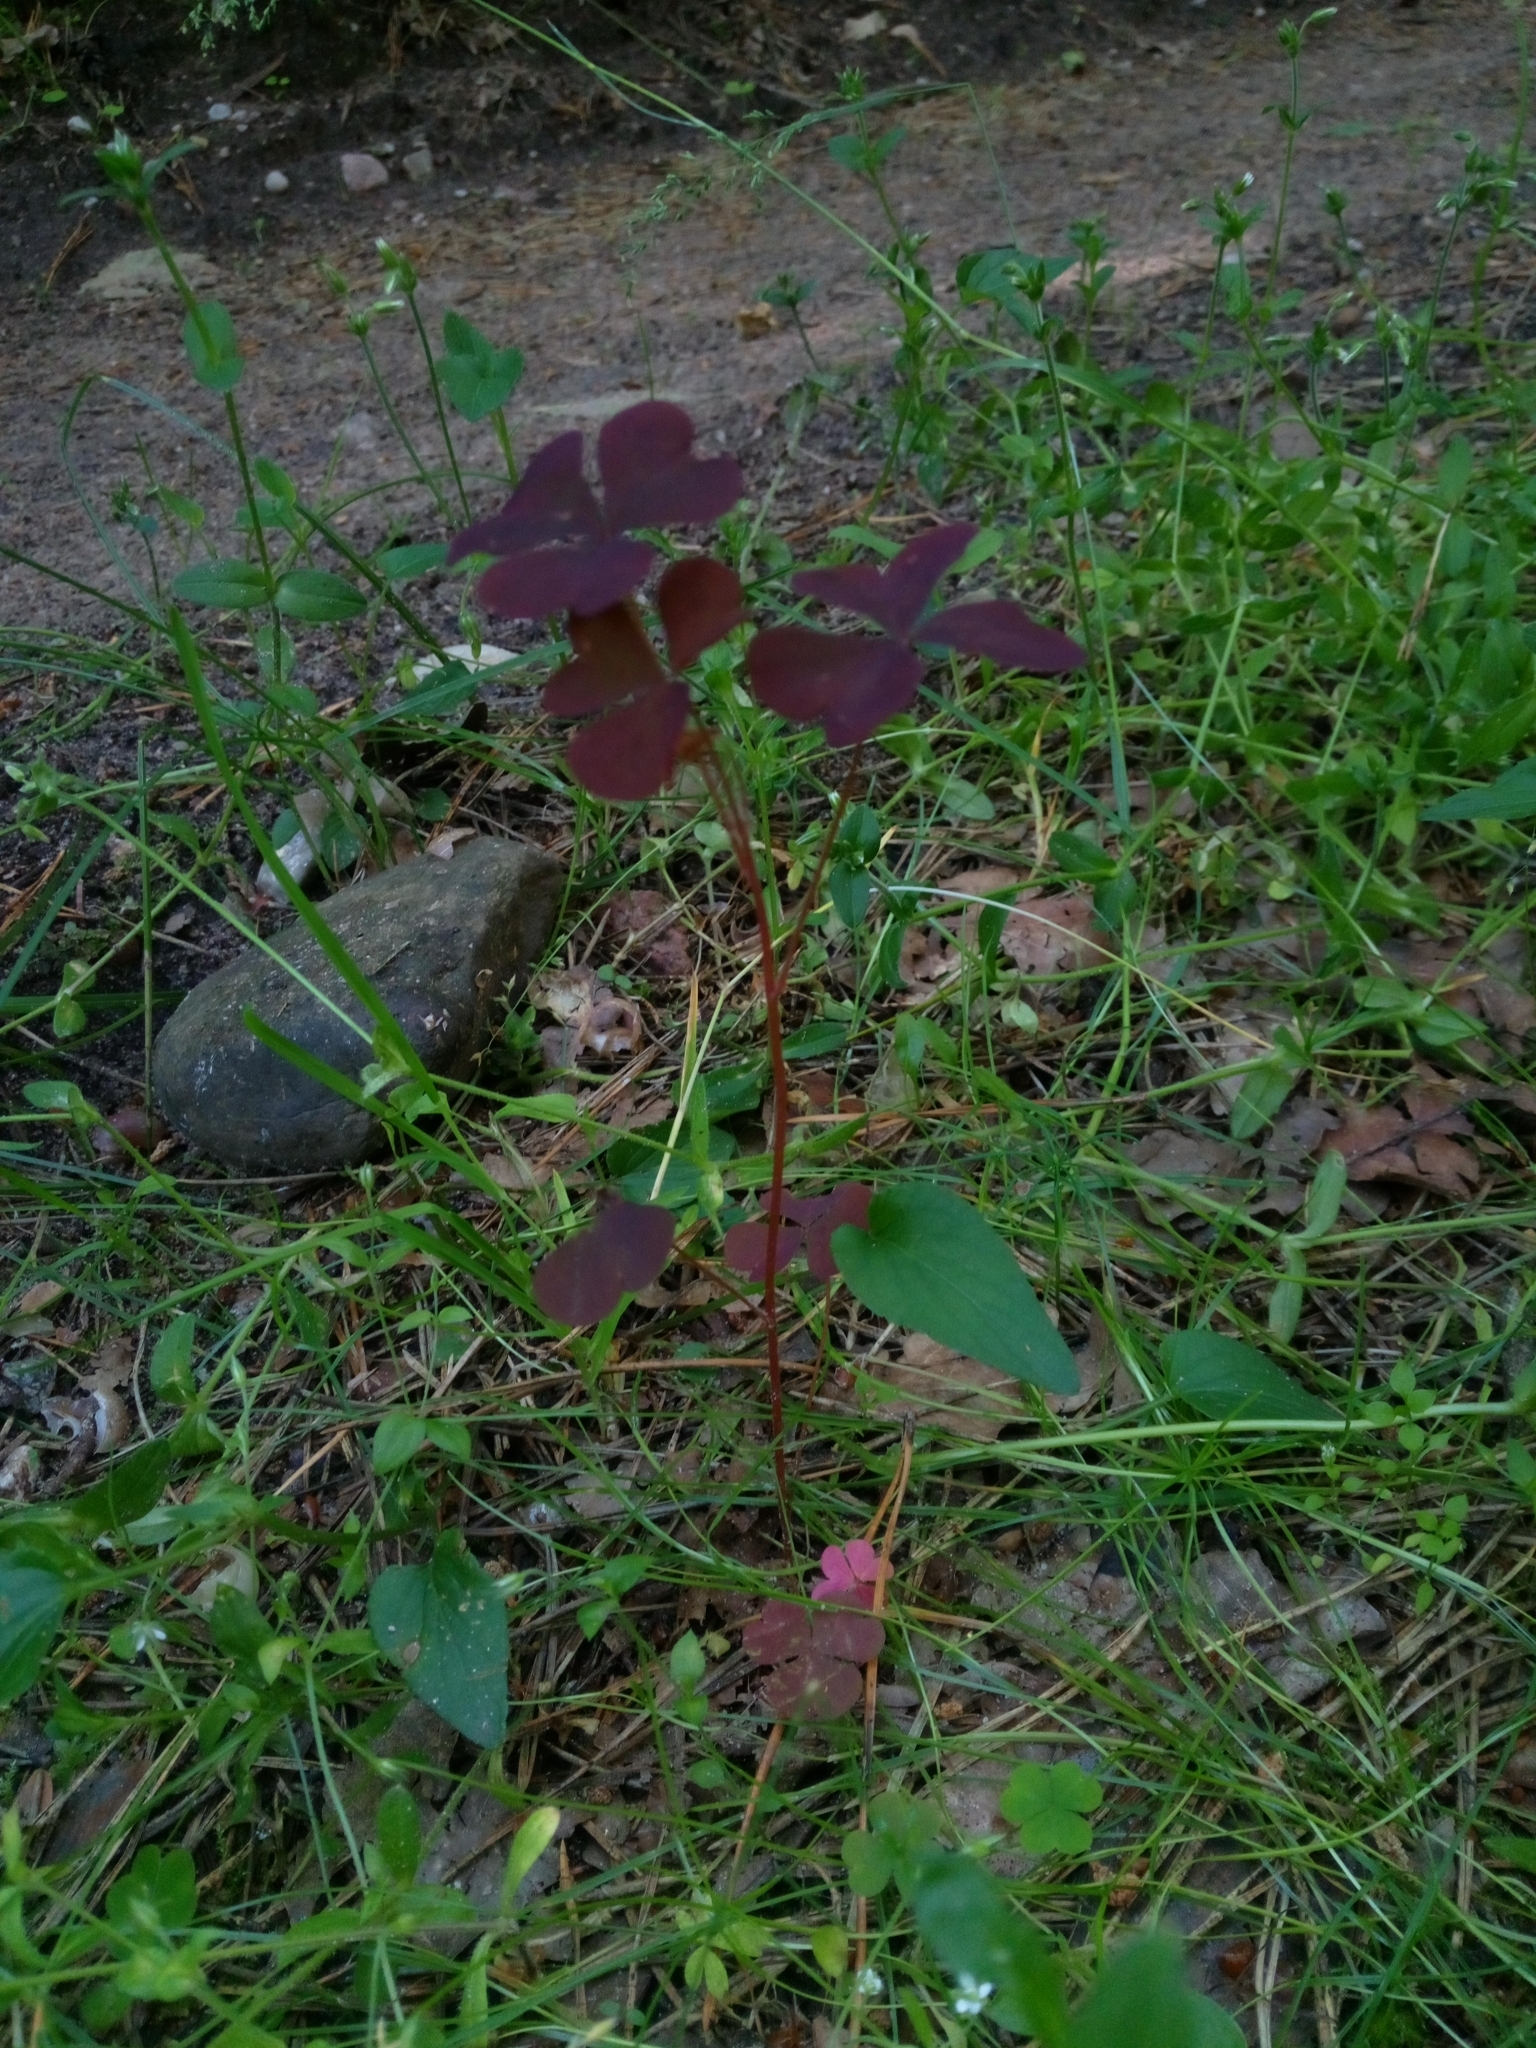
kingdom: Plantae
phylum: Tracheophyta
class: Magnoliopsida
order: Oxalidales
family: Oxalidaceae
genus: Oxalis
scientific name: Oxalis stricta
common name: Upright yellow-sorrel
